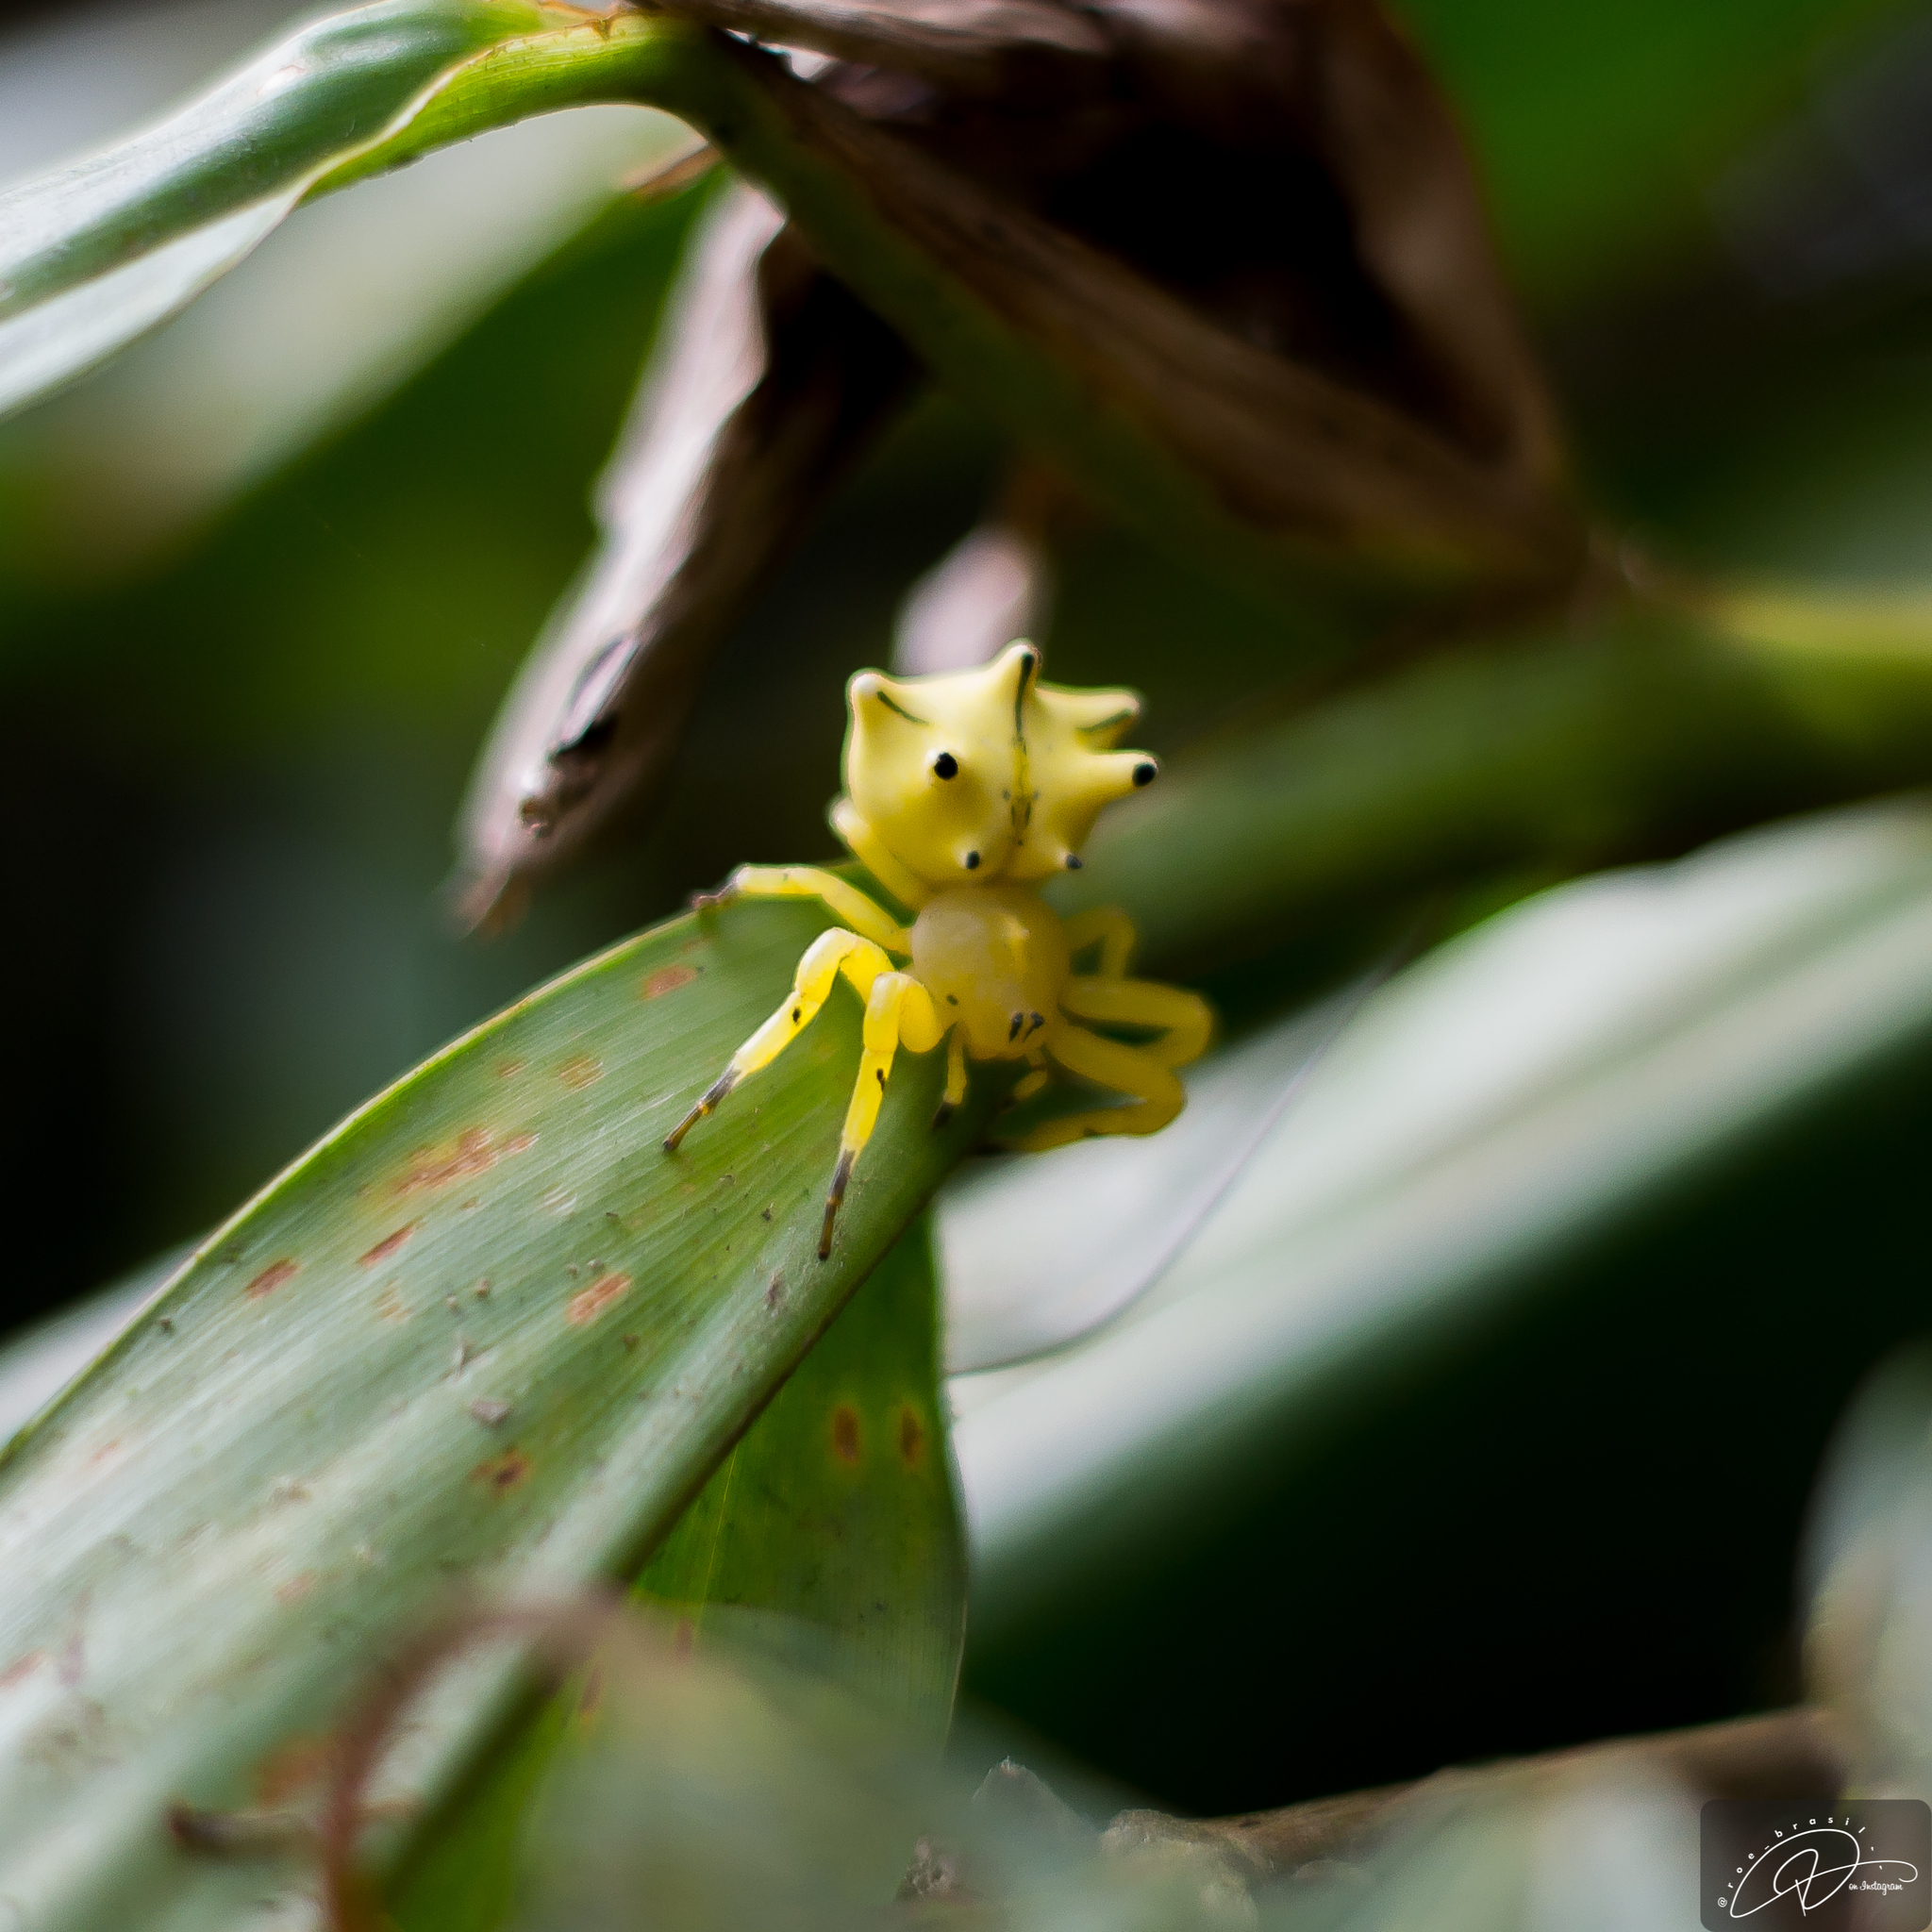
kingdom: Animalia
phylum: Arthropoda
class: Arachnida
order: Araneae
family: Thomisidae
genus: Epicadus
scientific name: Epicadus heterogaster
